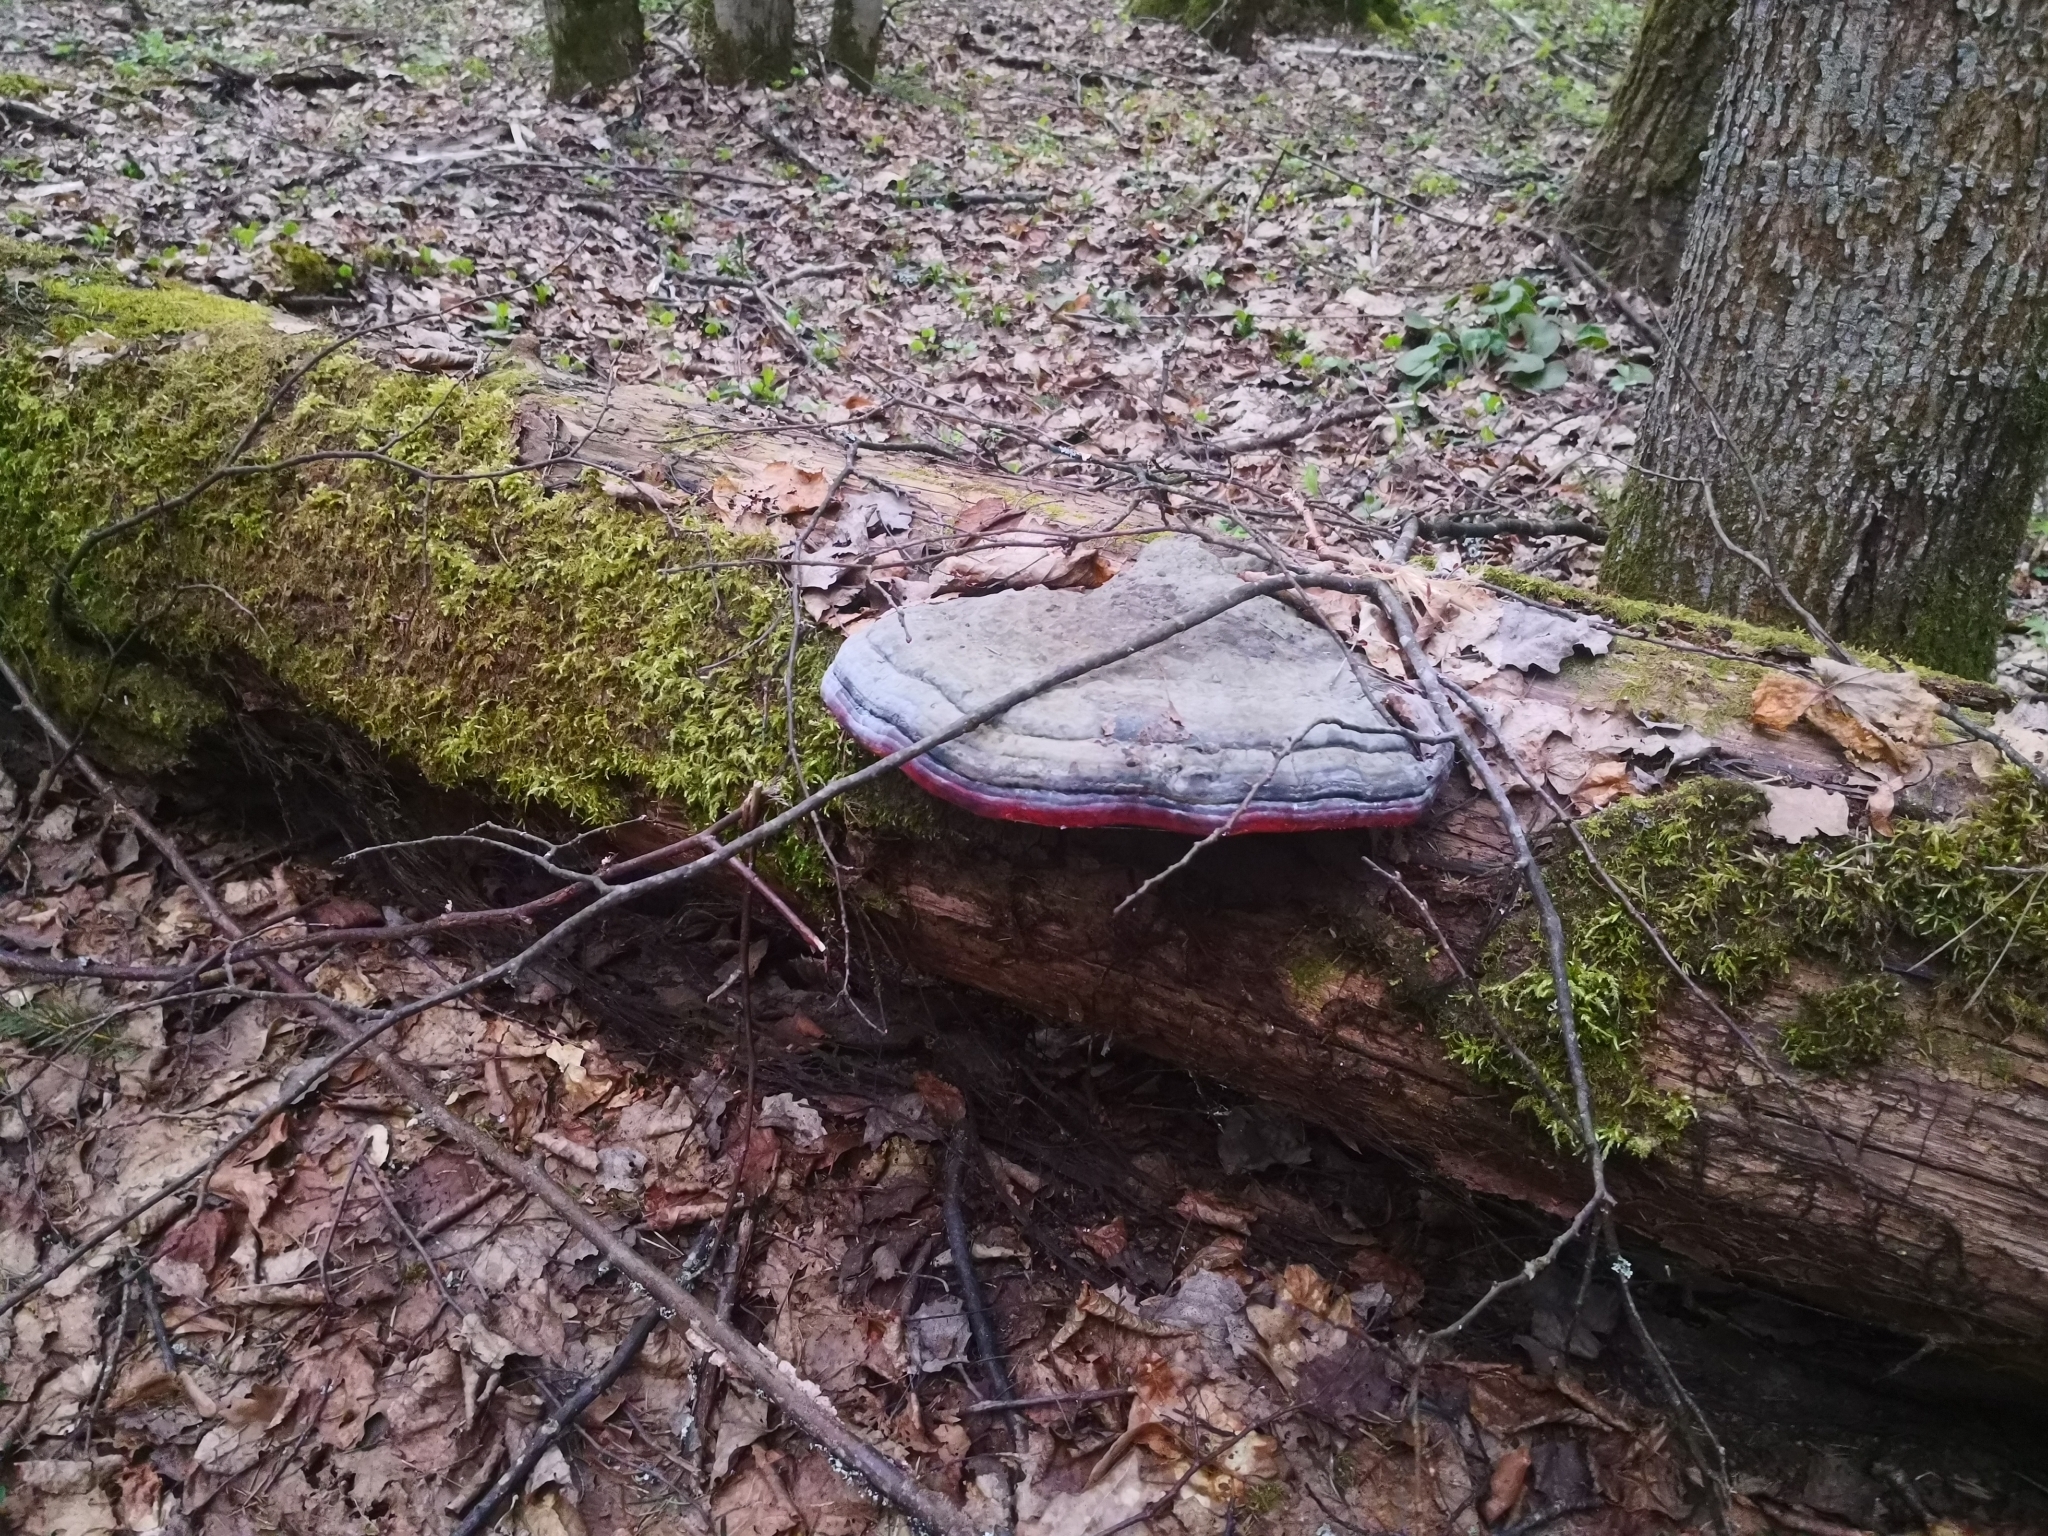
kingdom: Fungi
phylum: Basidiomycota
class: Agaricomycetes
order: Polyporales
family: Fomitopsidaceae
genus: Fomitopsis
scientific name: Fomitopsis pinicola
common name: Red-belted bracket
